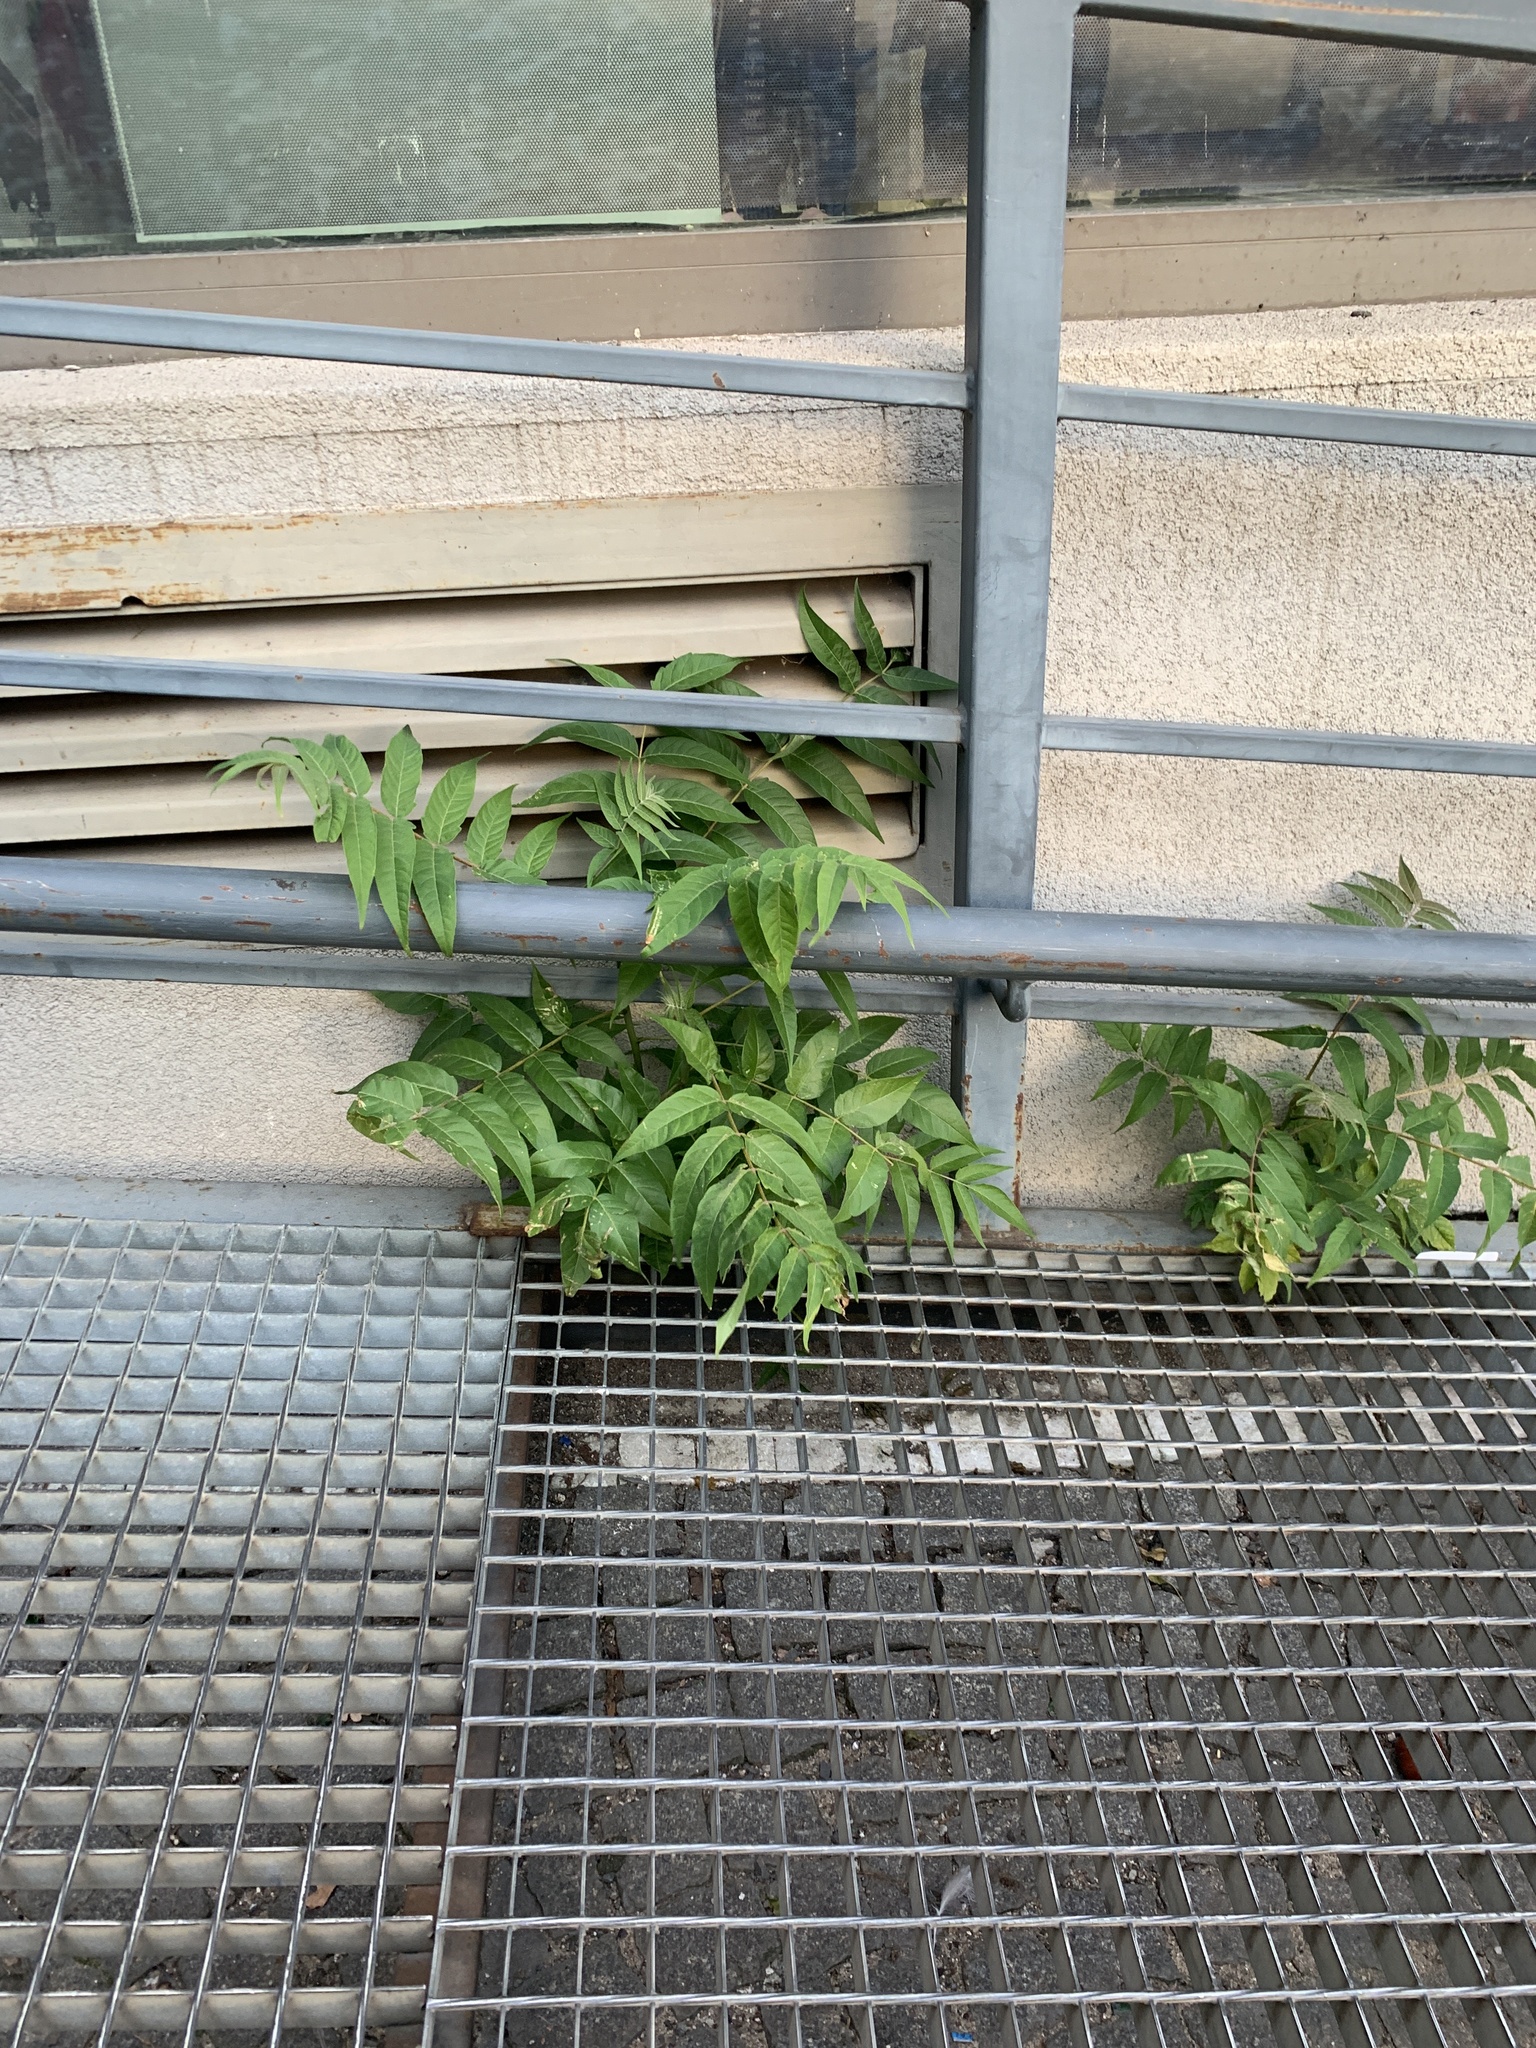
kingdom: Plantae
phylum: Tracheophyta
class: Magnoliopsida
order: Sapindales
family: Simaroubaceae
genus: Ailanthus
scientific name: Ailanthus altissima
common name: Tree-of-heaven
